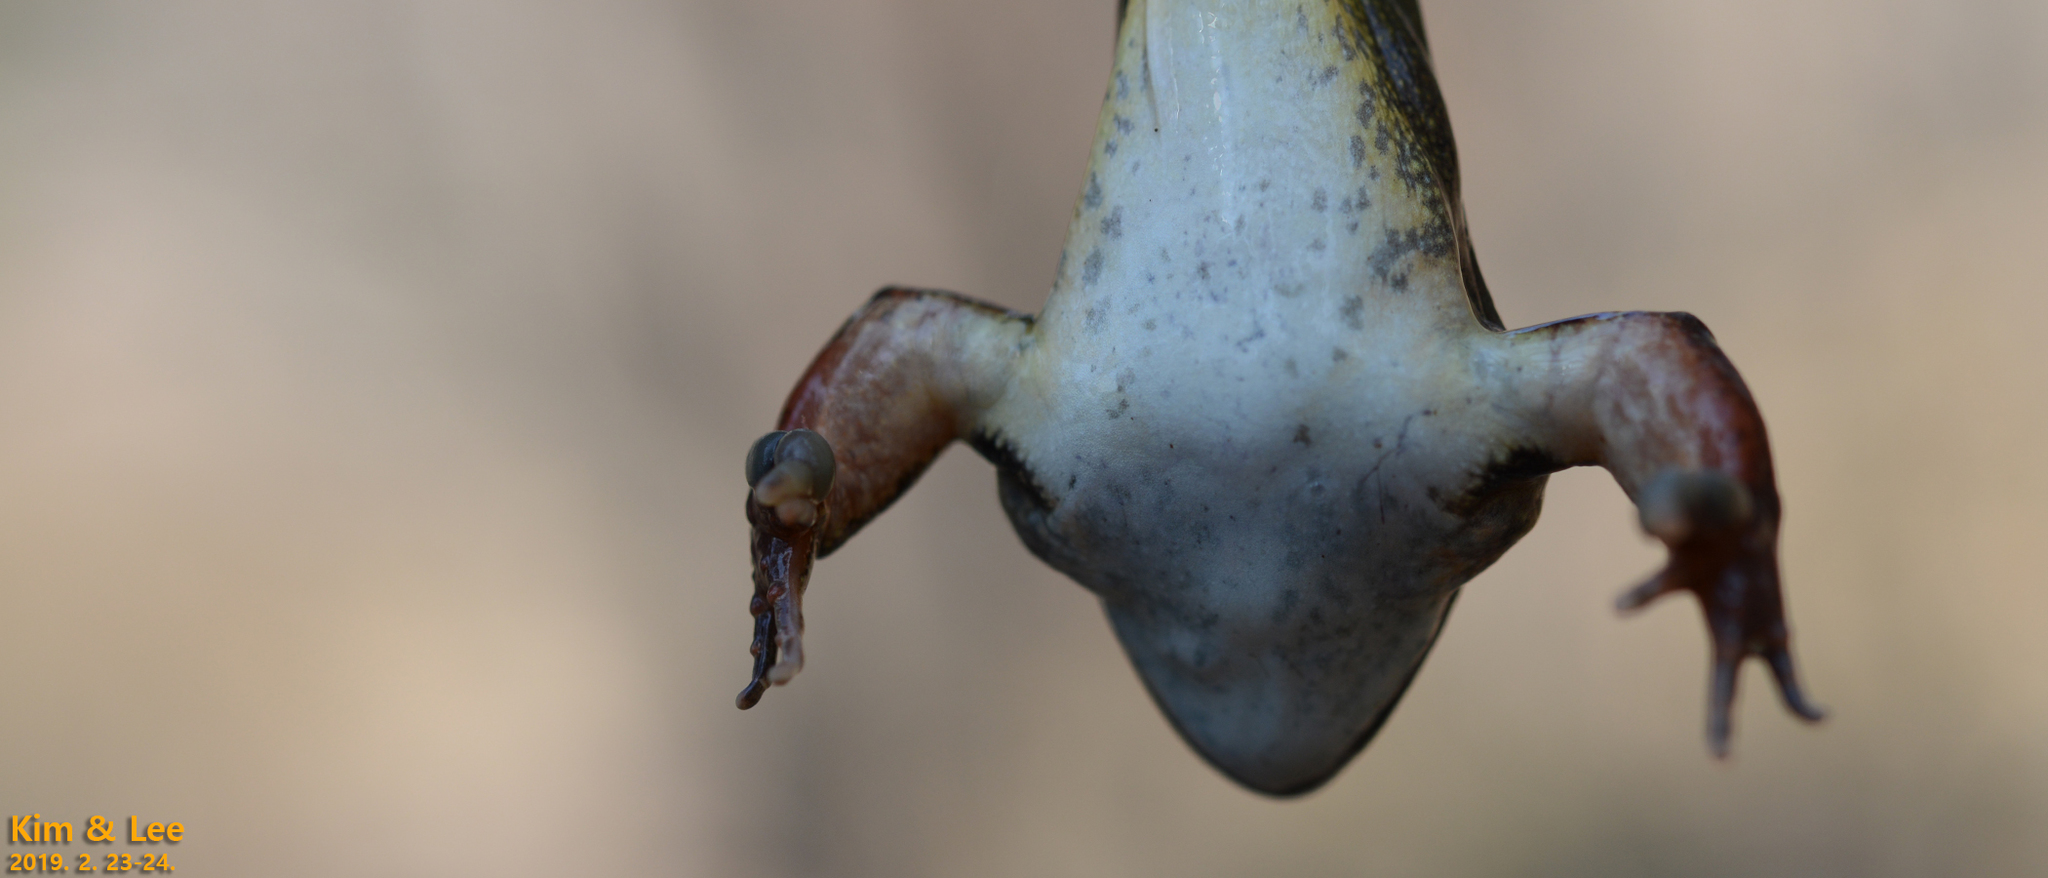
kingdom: Animalia
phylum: Chordata
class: Amphibia
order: Anura
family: Ranidae
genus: Rana
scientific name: Rana uenoi
